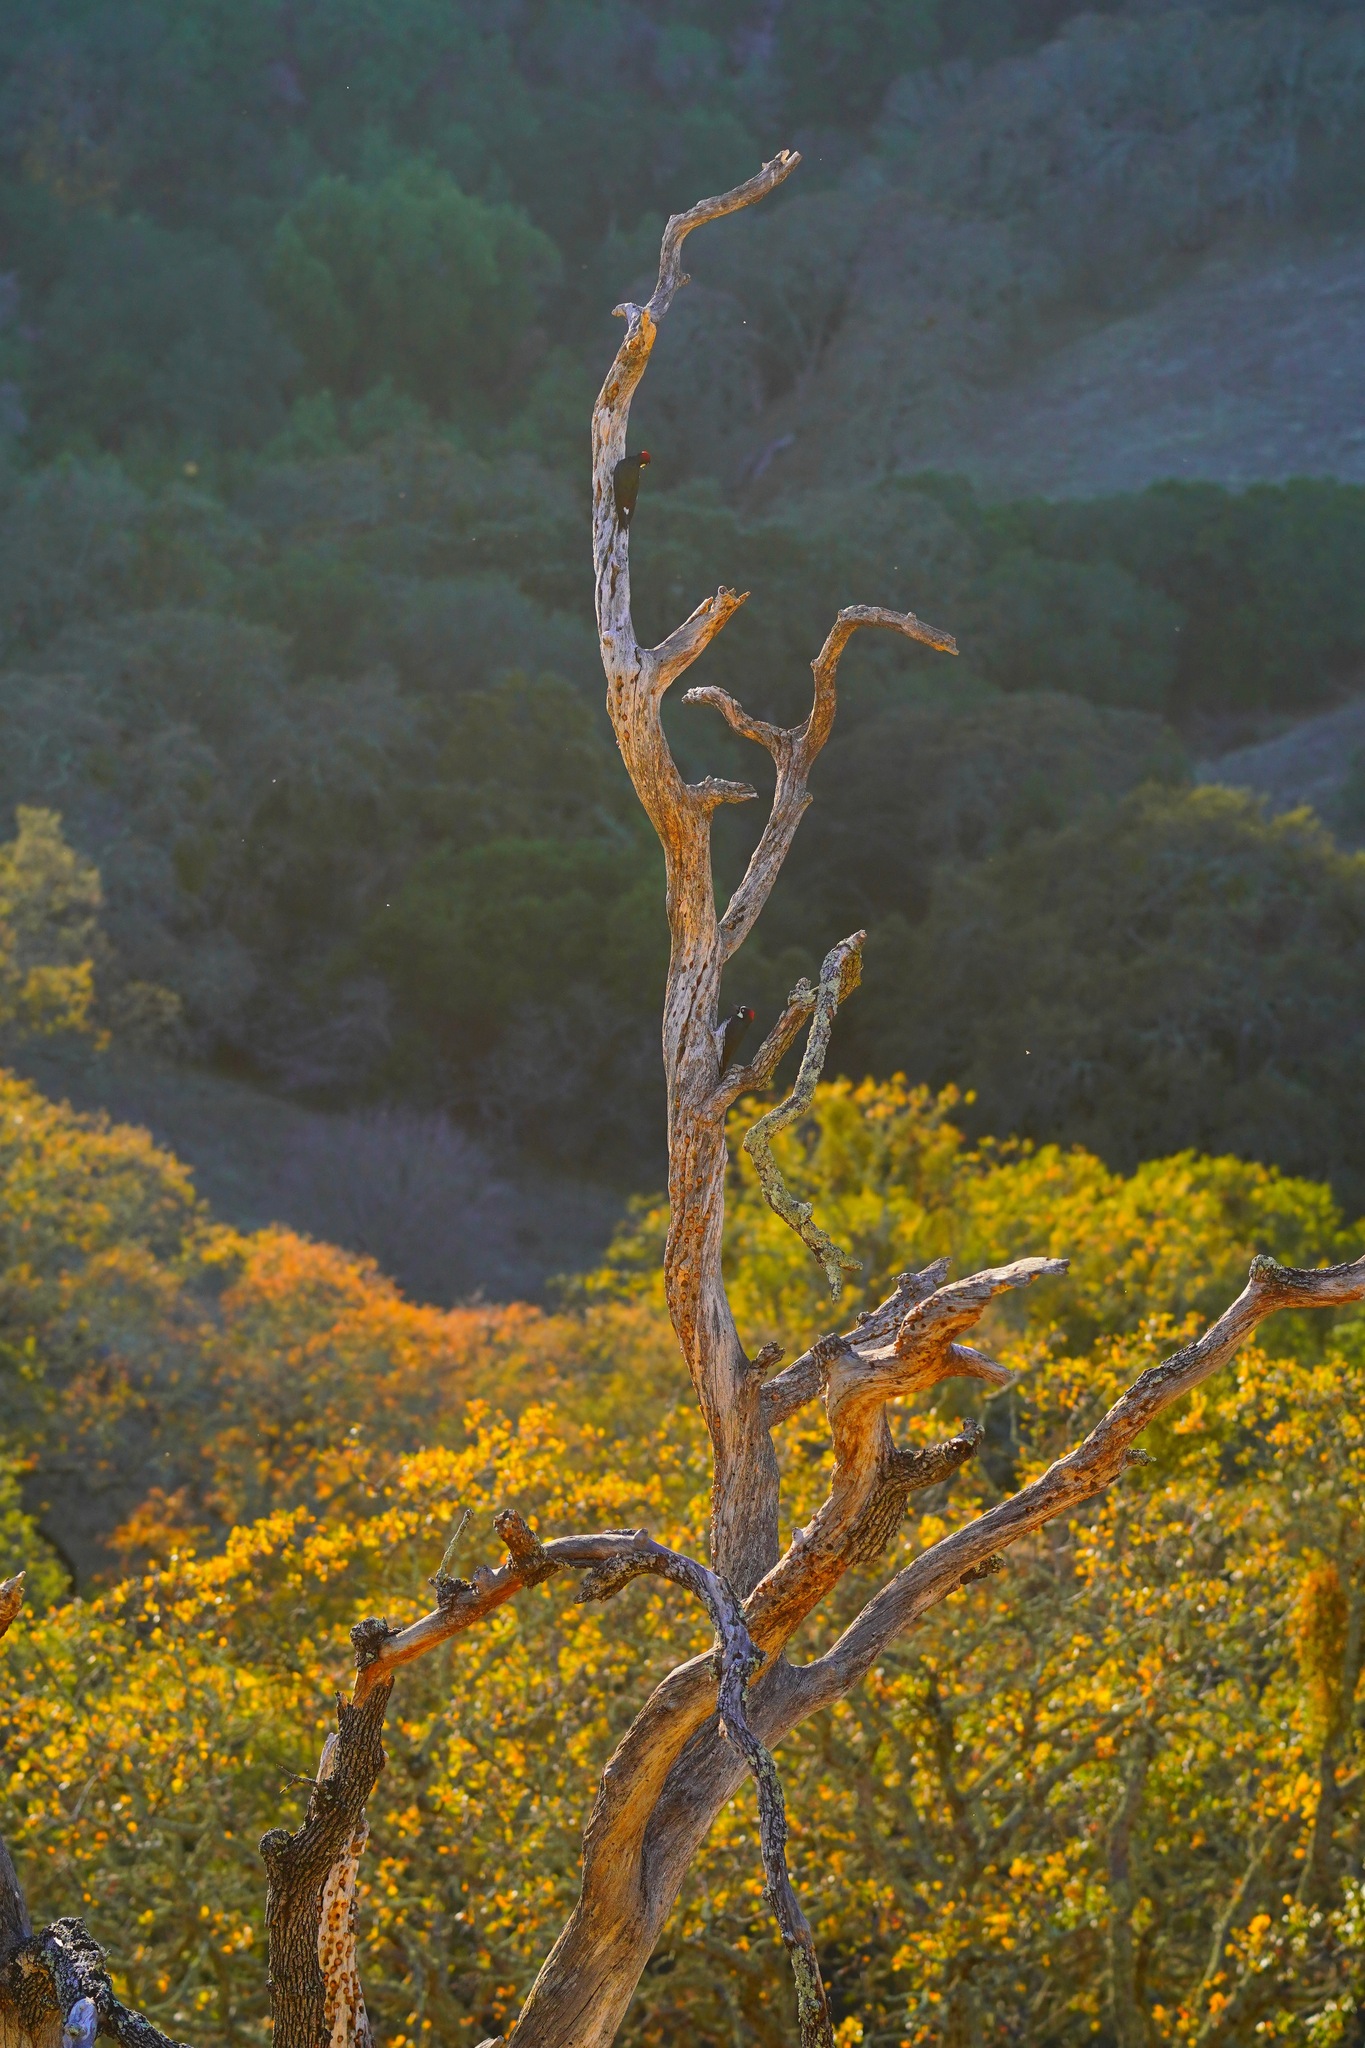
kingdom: Animalia
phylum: Chordata
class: Aves
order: Piciformes
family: Picidae
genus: Melanerpes
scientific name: Melanerpes formicivorus
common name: Acorn woodpecker
